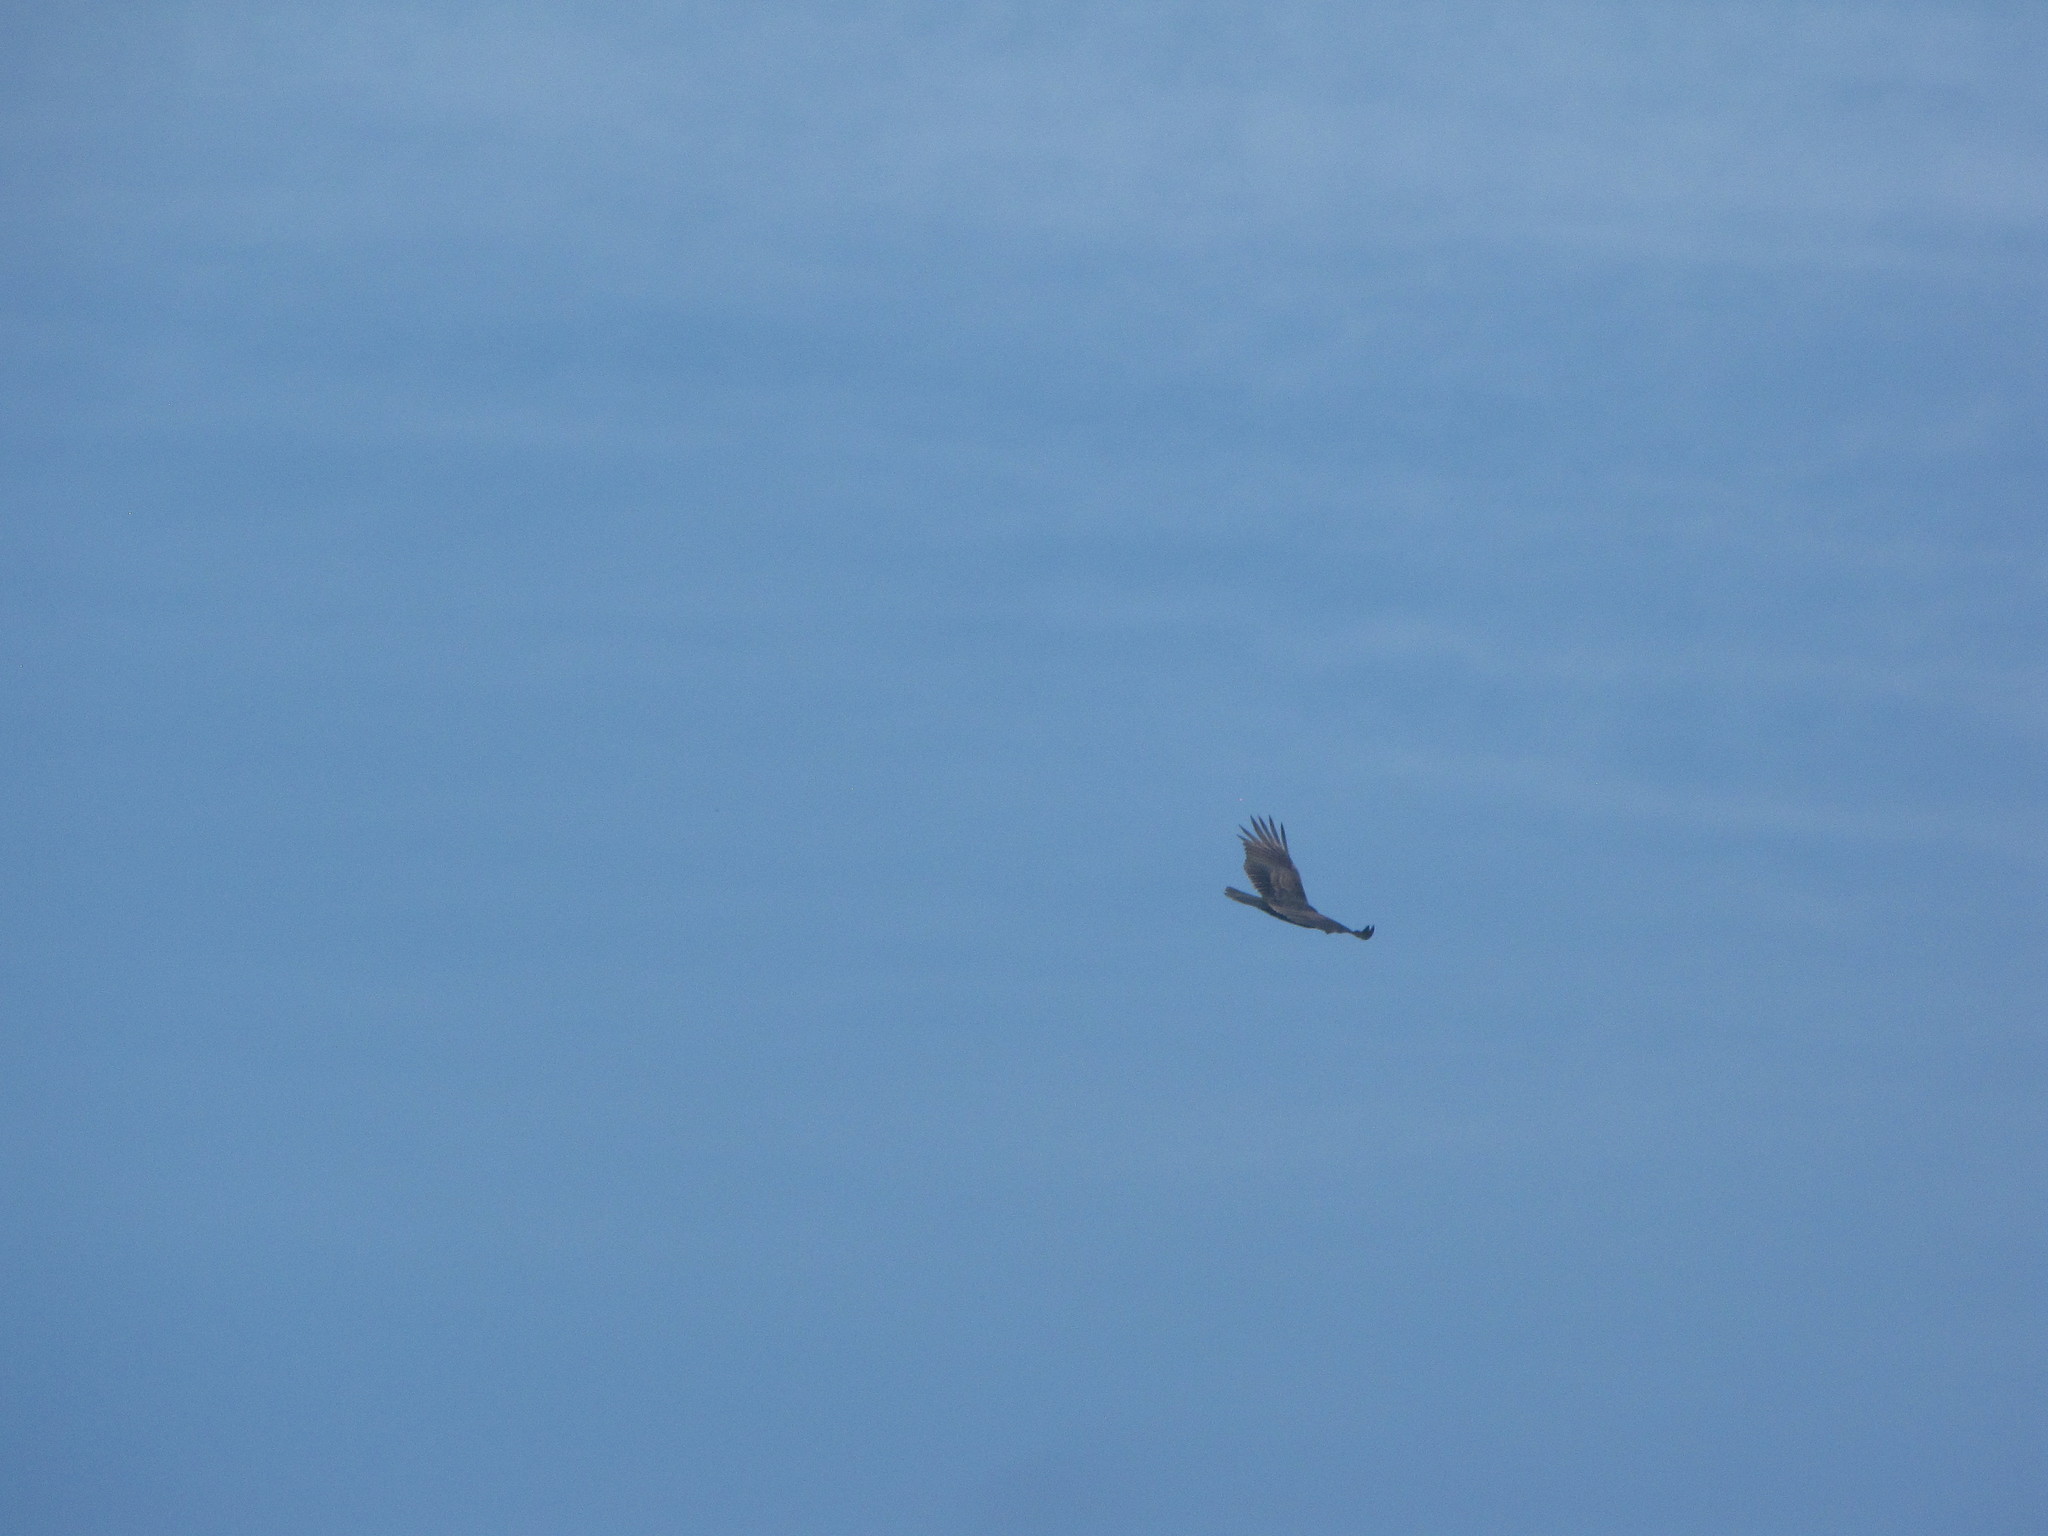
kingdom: Animalia
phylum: Chordata
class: Aves
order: Accipitriformes
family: Cathartidae
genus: Cathartes
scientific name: Cathartes aura
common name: Turkey vulture
